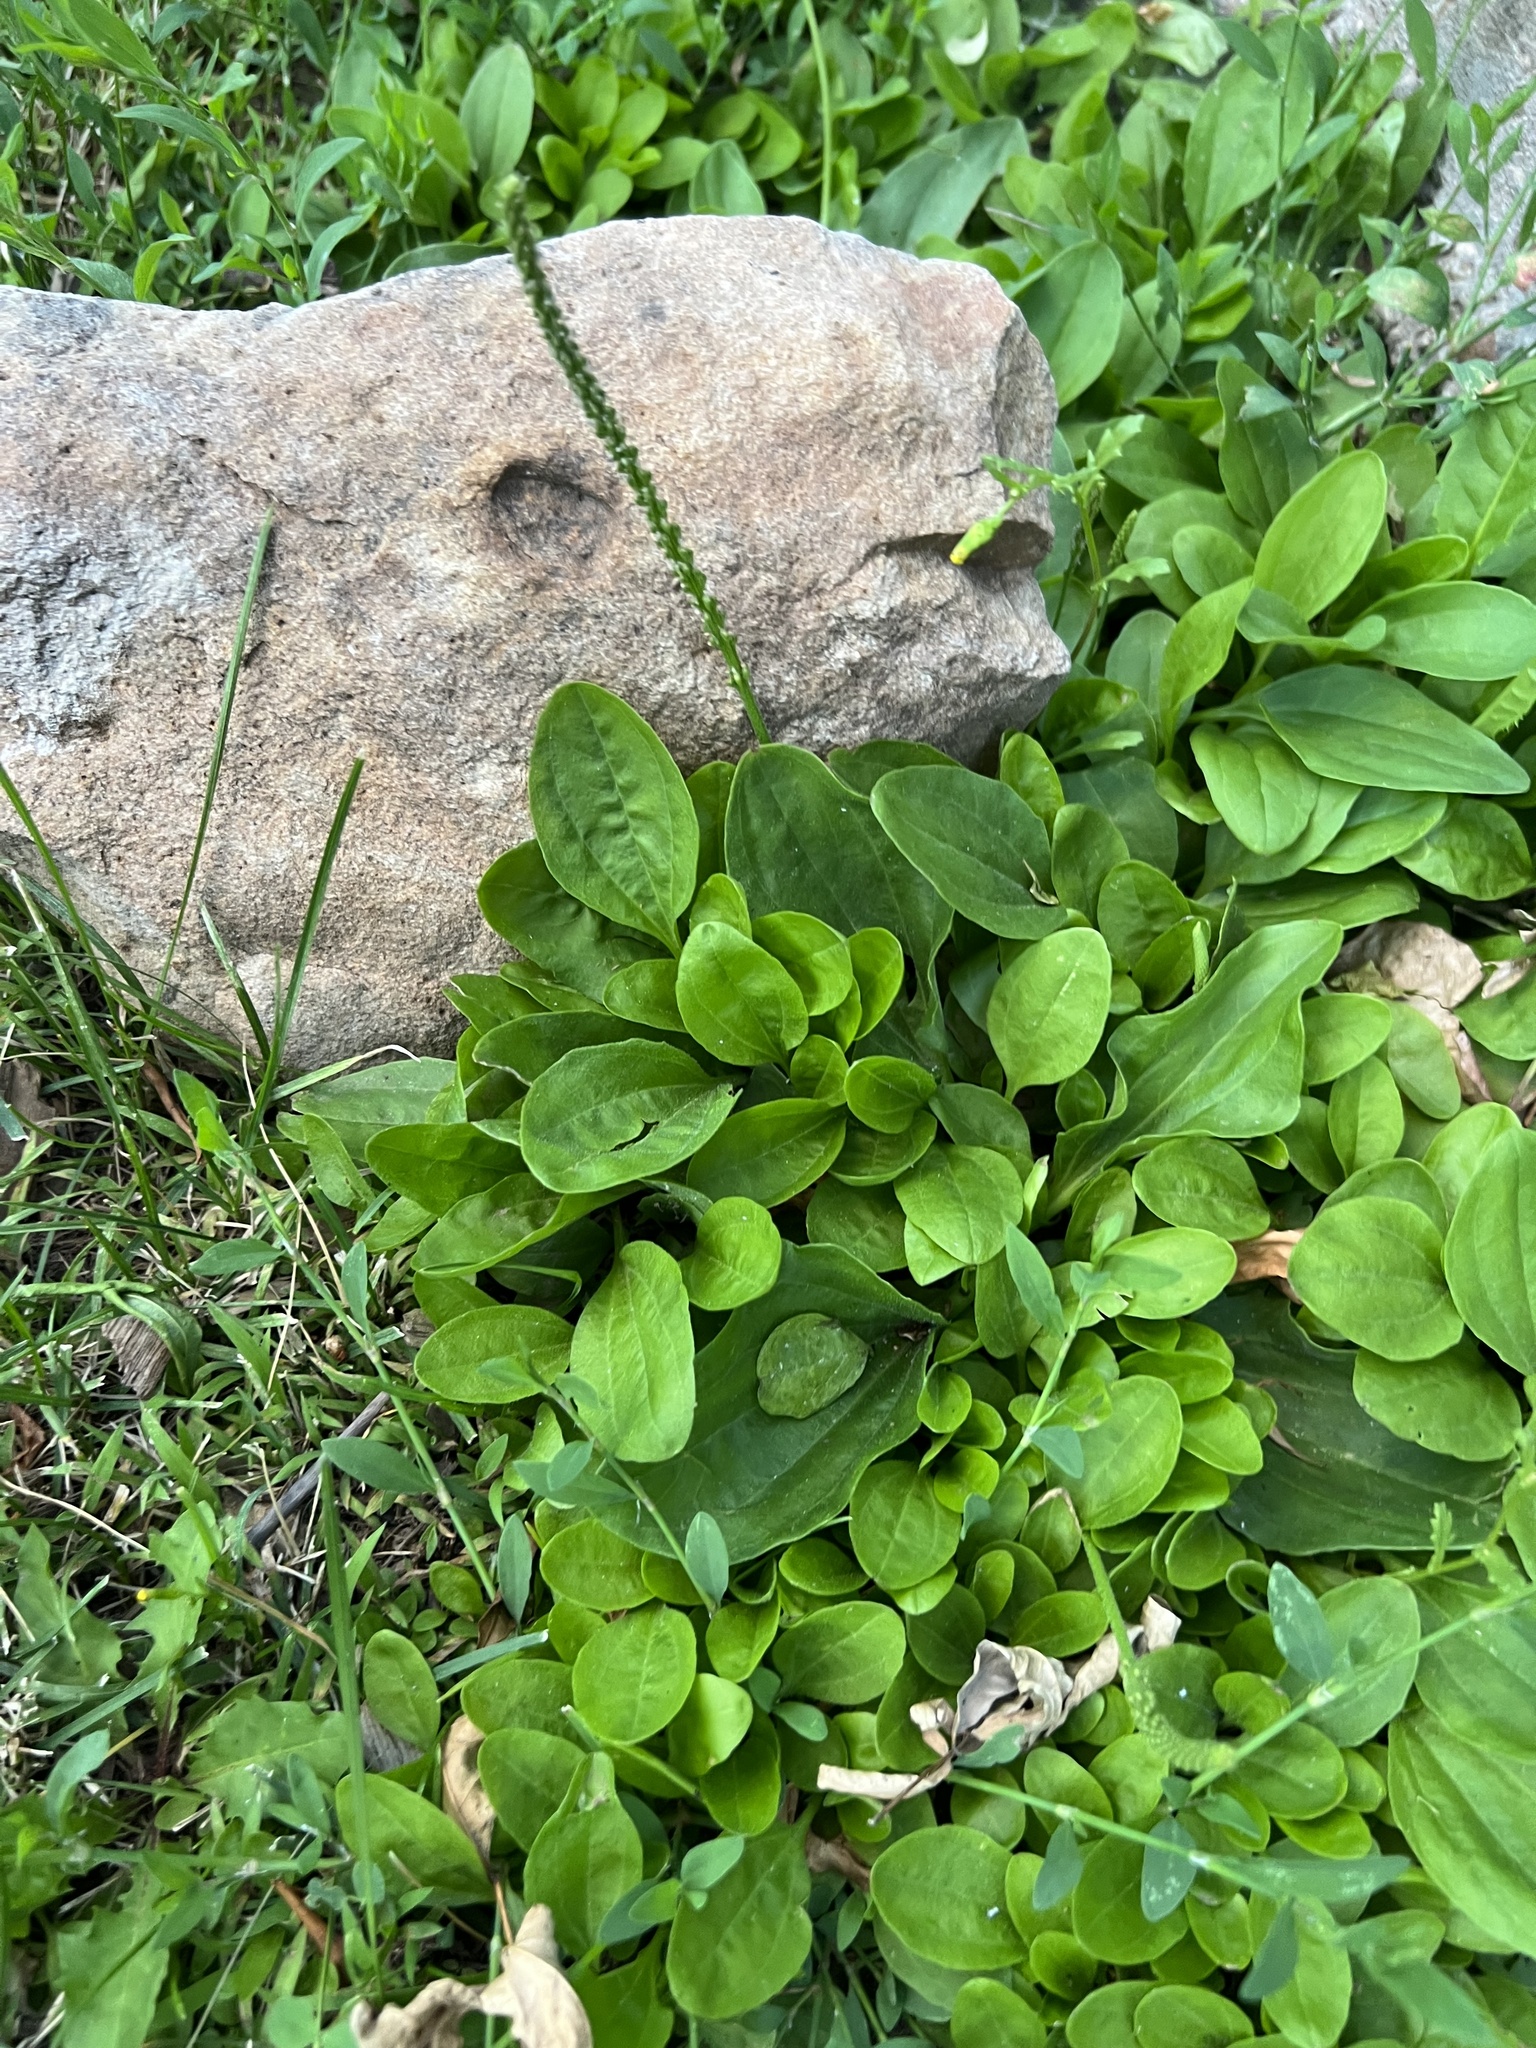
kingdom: Plantae
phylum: Tracheophyta
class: Magnoliopsida
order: Lamiales
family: Plantaginaceae
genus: Plantago
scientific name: Plantago major
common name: Common plantain
